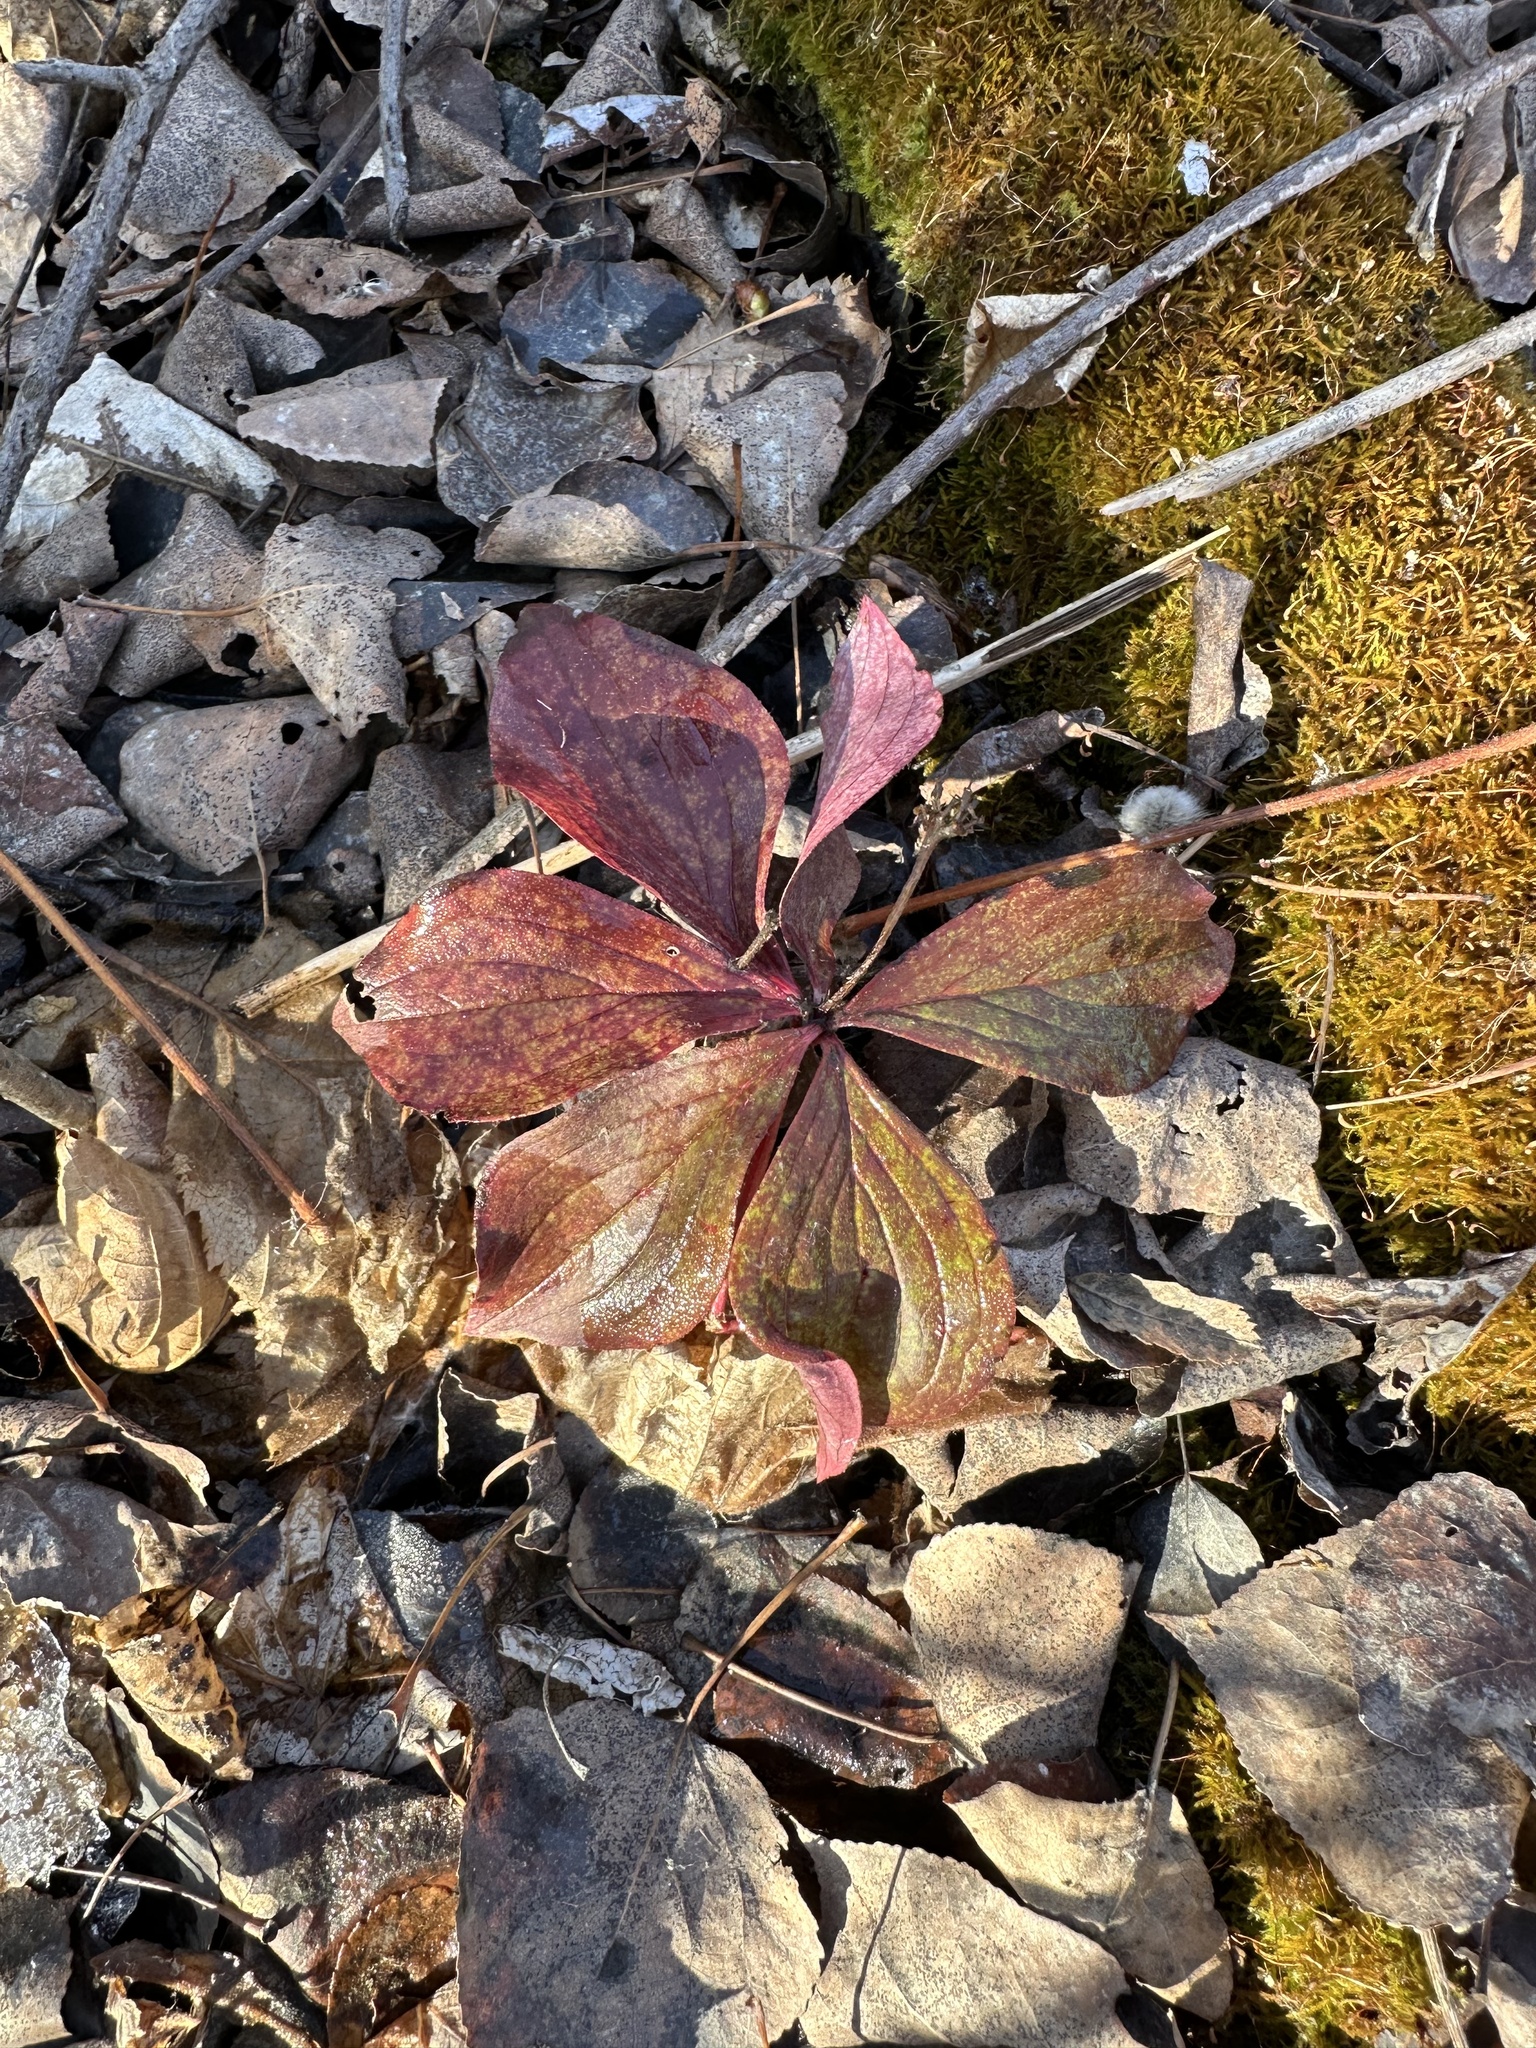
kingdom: Plantae
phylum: Tracheophyta
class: Magnoliopsida
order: Cornales
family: Cornaceae
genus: Cornus
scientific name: Cornus canadensis
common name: Creeping dogwood
